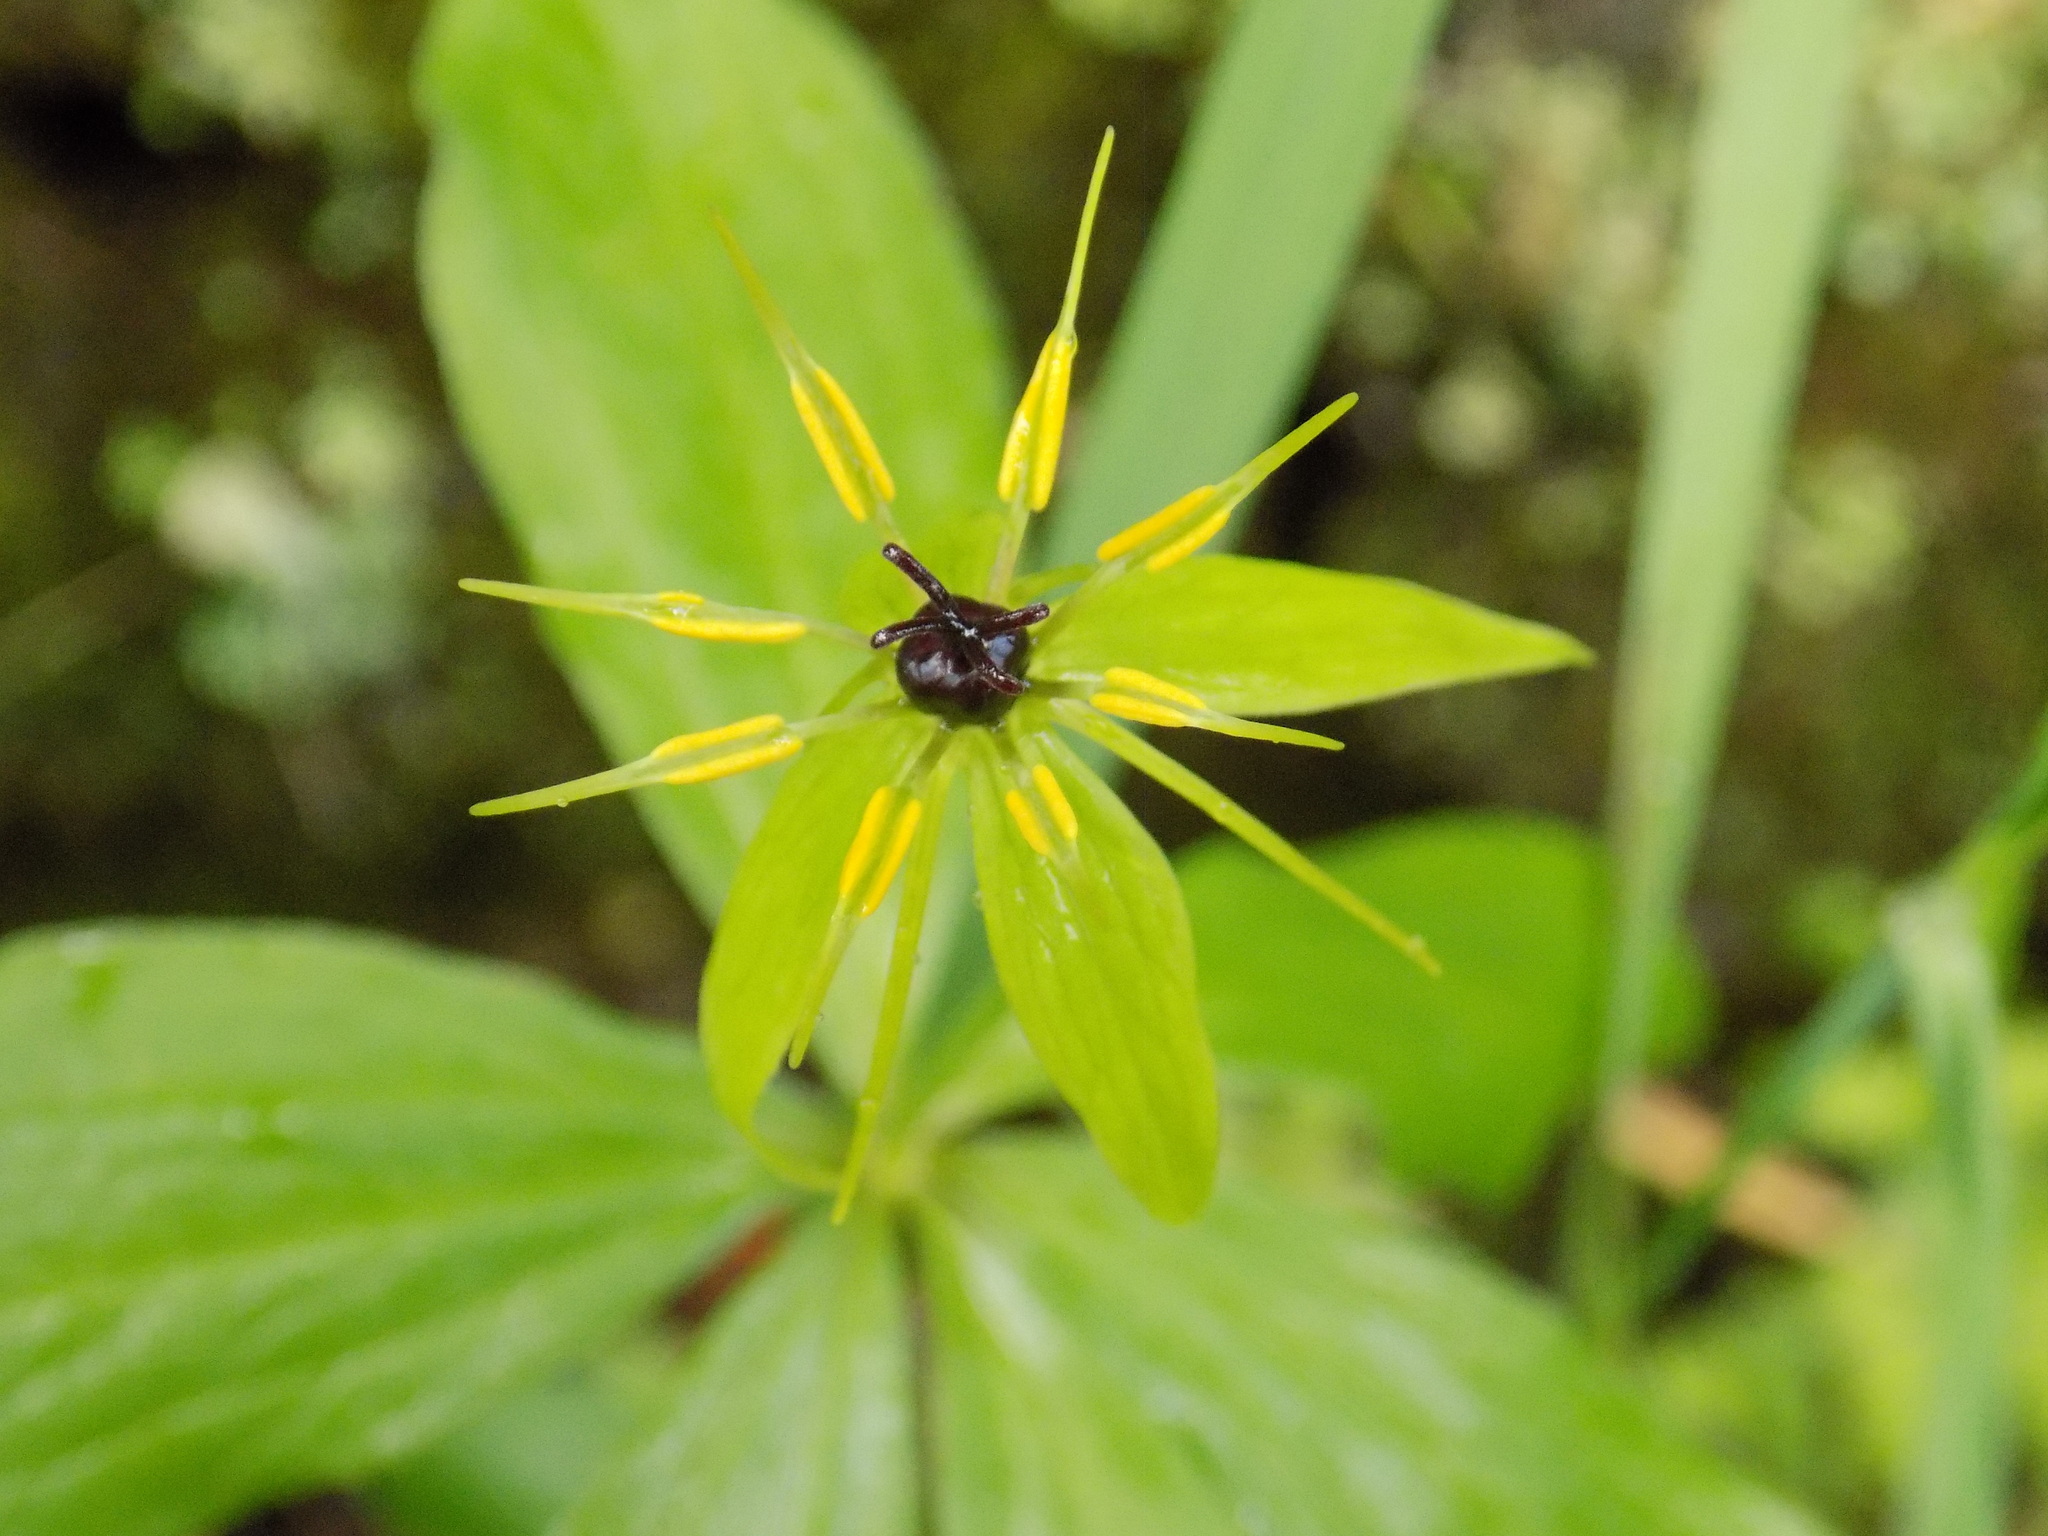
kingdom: Plantae
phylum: Tracheophyta
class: Liliopsida
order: Liliales
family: Melanthiaceae
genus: Paris
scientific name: Paris quadrifolia
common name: Herb-paris
